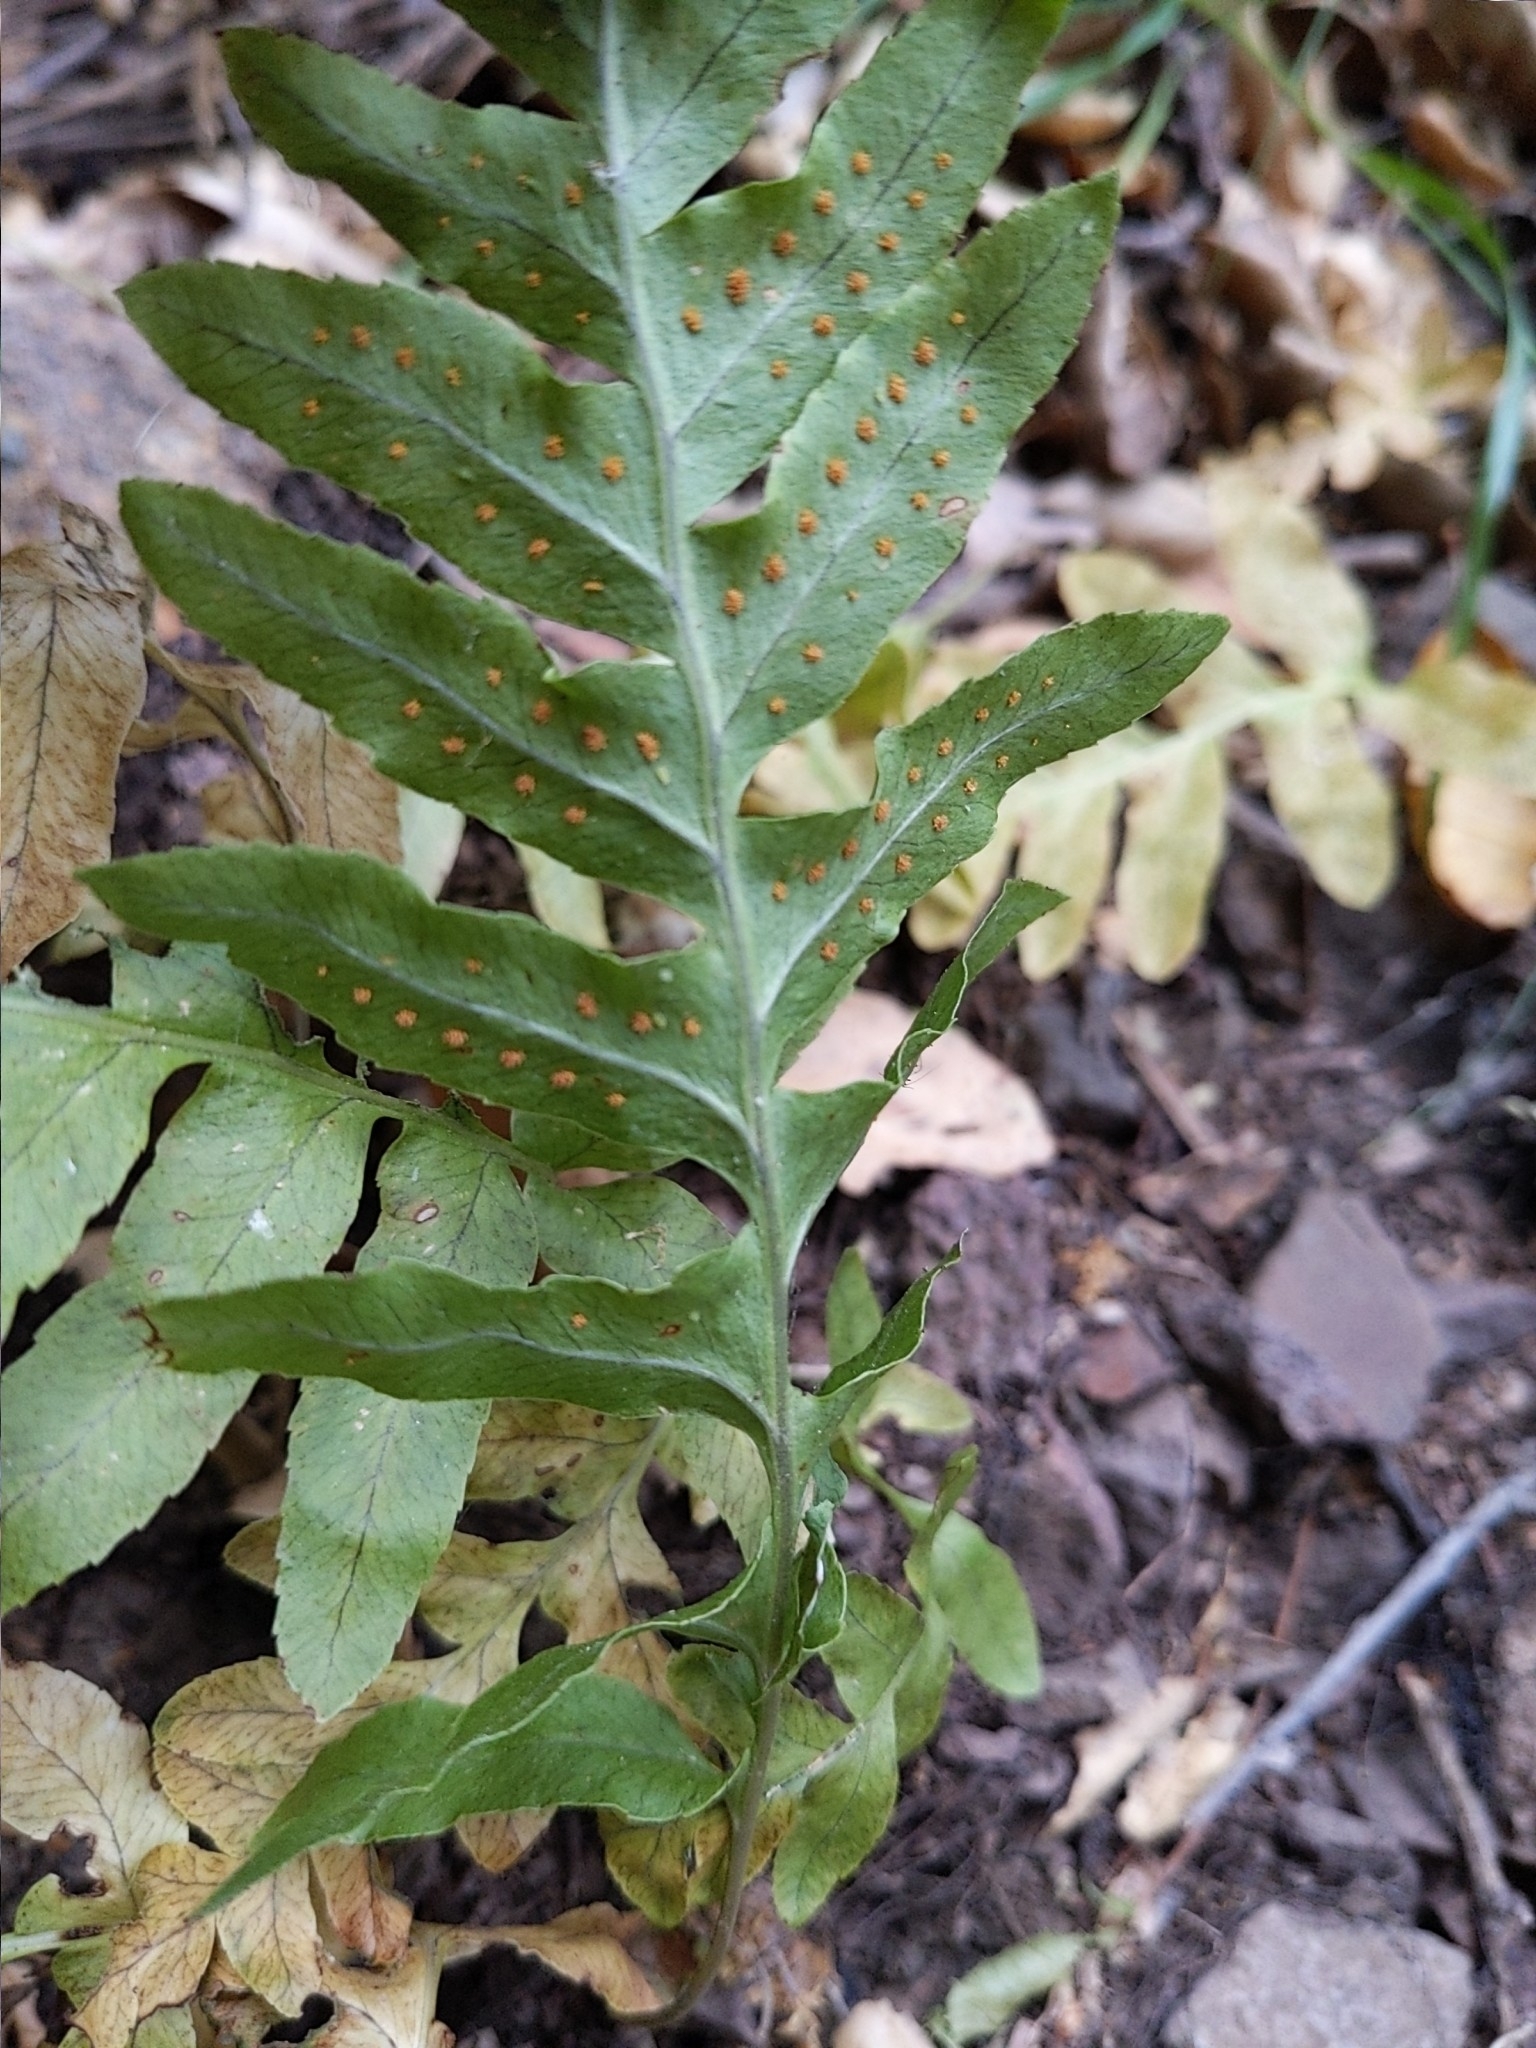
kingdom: Plantae
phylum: Tracheophyta
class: Polypodiopsida
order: Polypodiales
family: Polypodiaceae
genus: Polypodium
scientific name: Polypodium californicum
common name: California polypody
